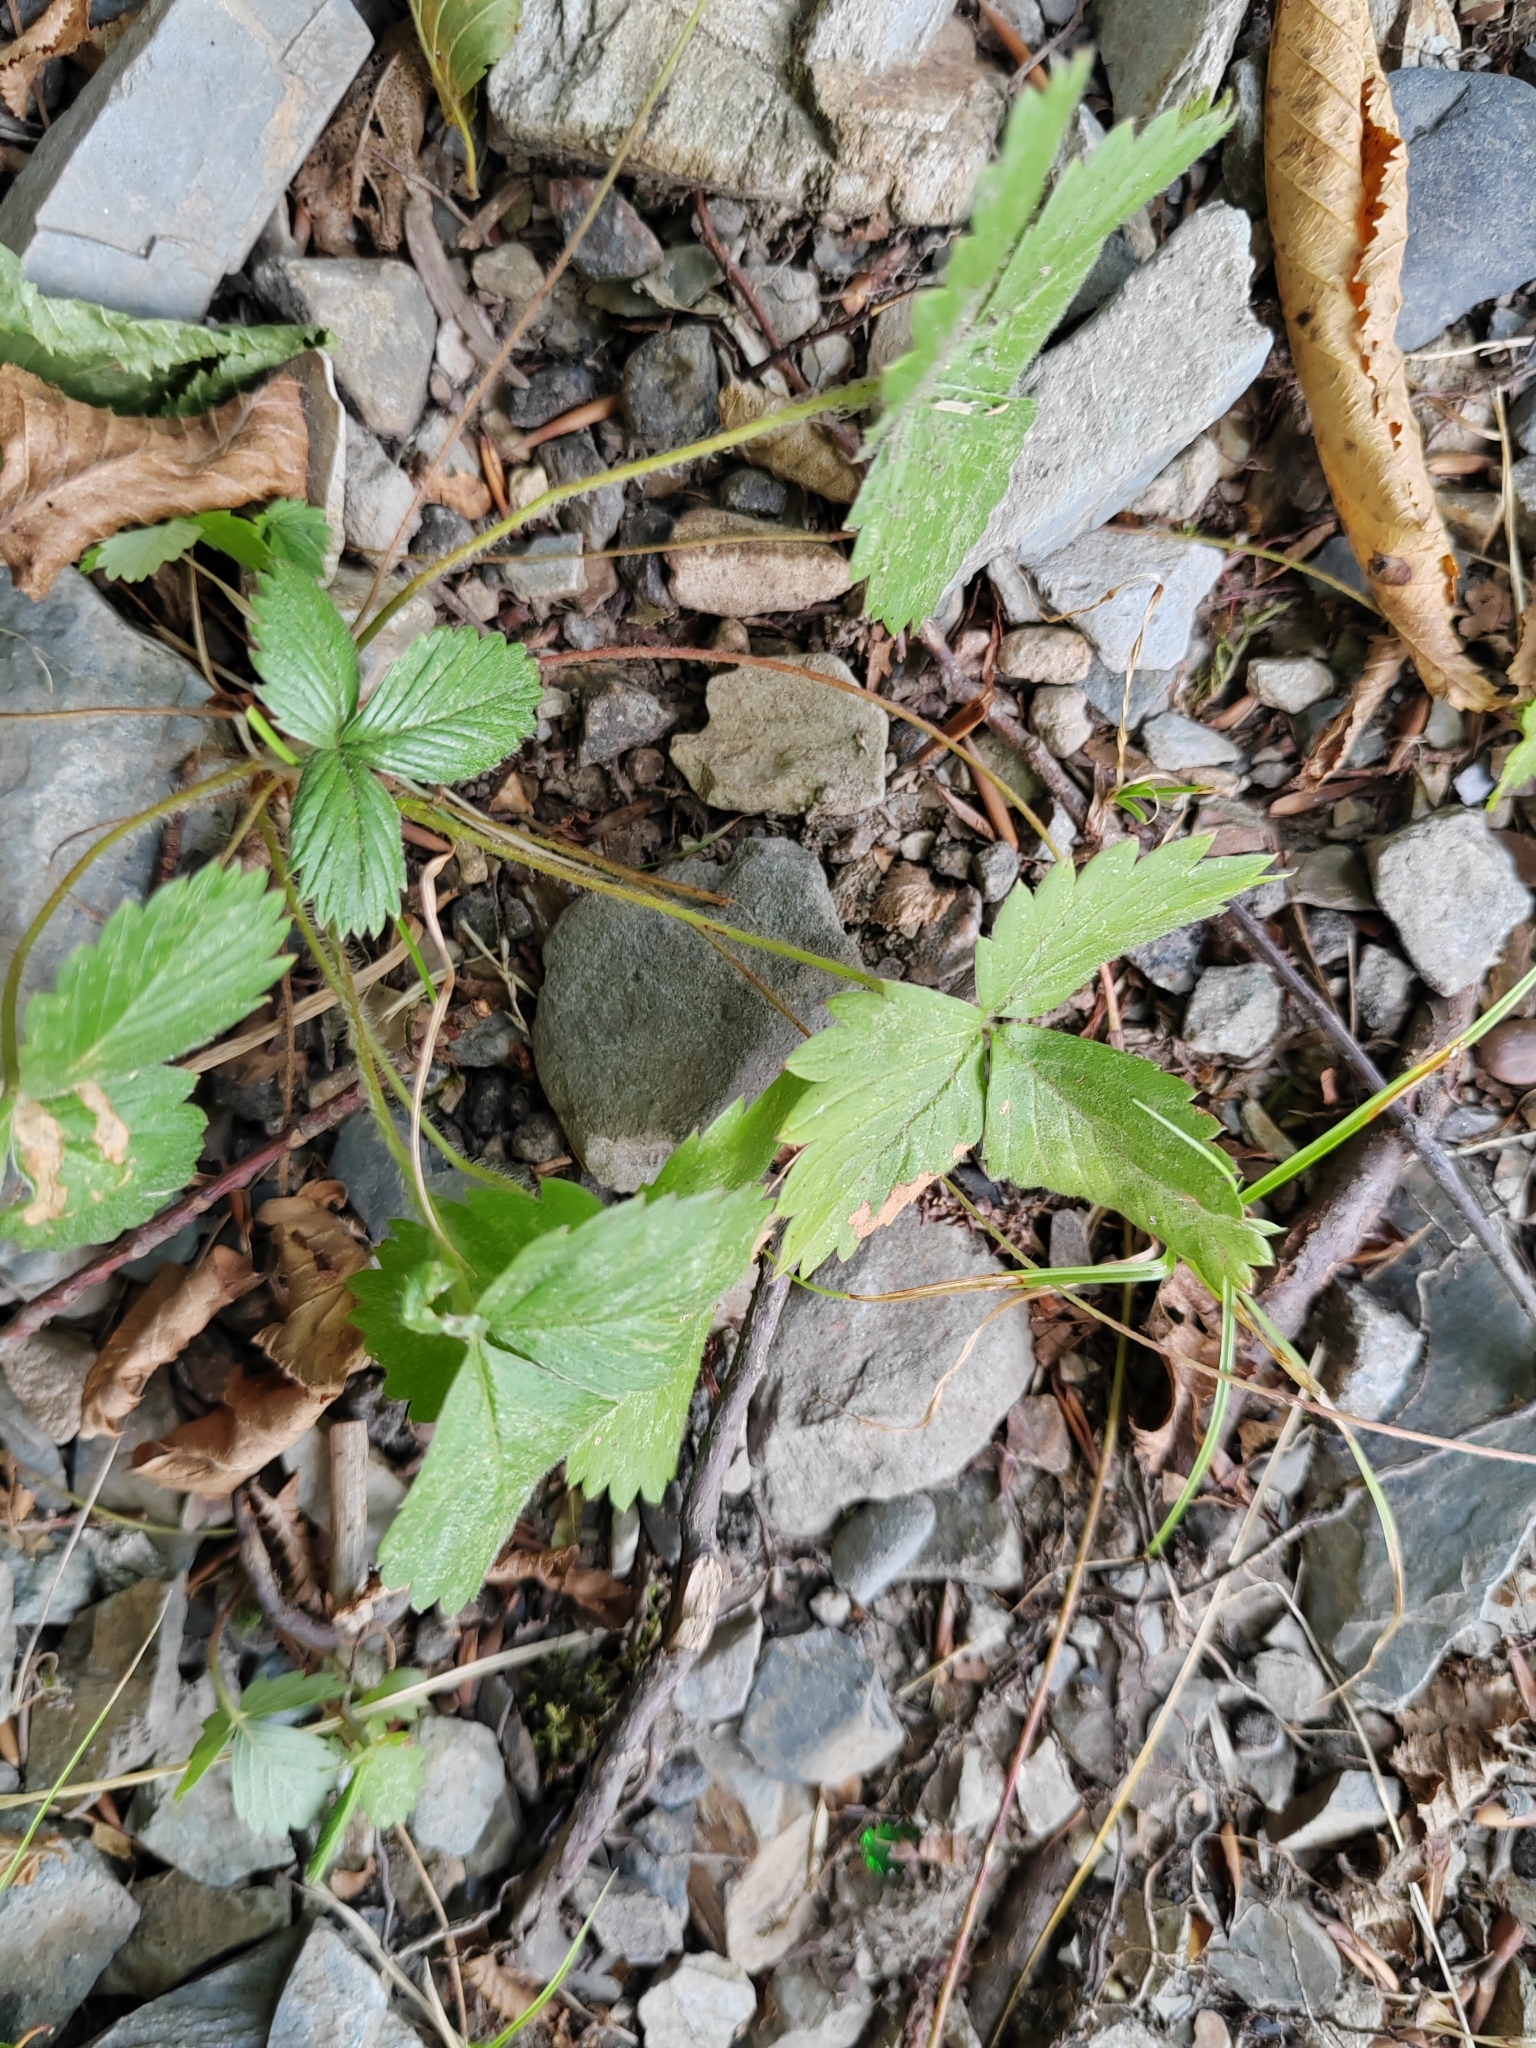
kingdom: Plantae
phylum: Tracheophyta
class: Magnoliopsida
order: Rosales
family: Rosaceae
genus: Fragaria
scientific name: Fragaria vesca
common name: Wild strawberry
